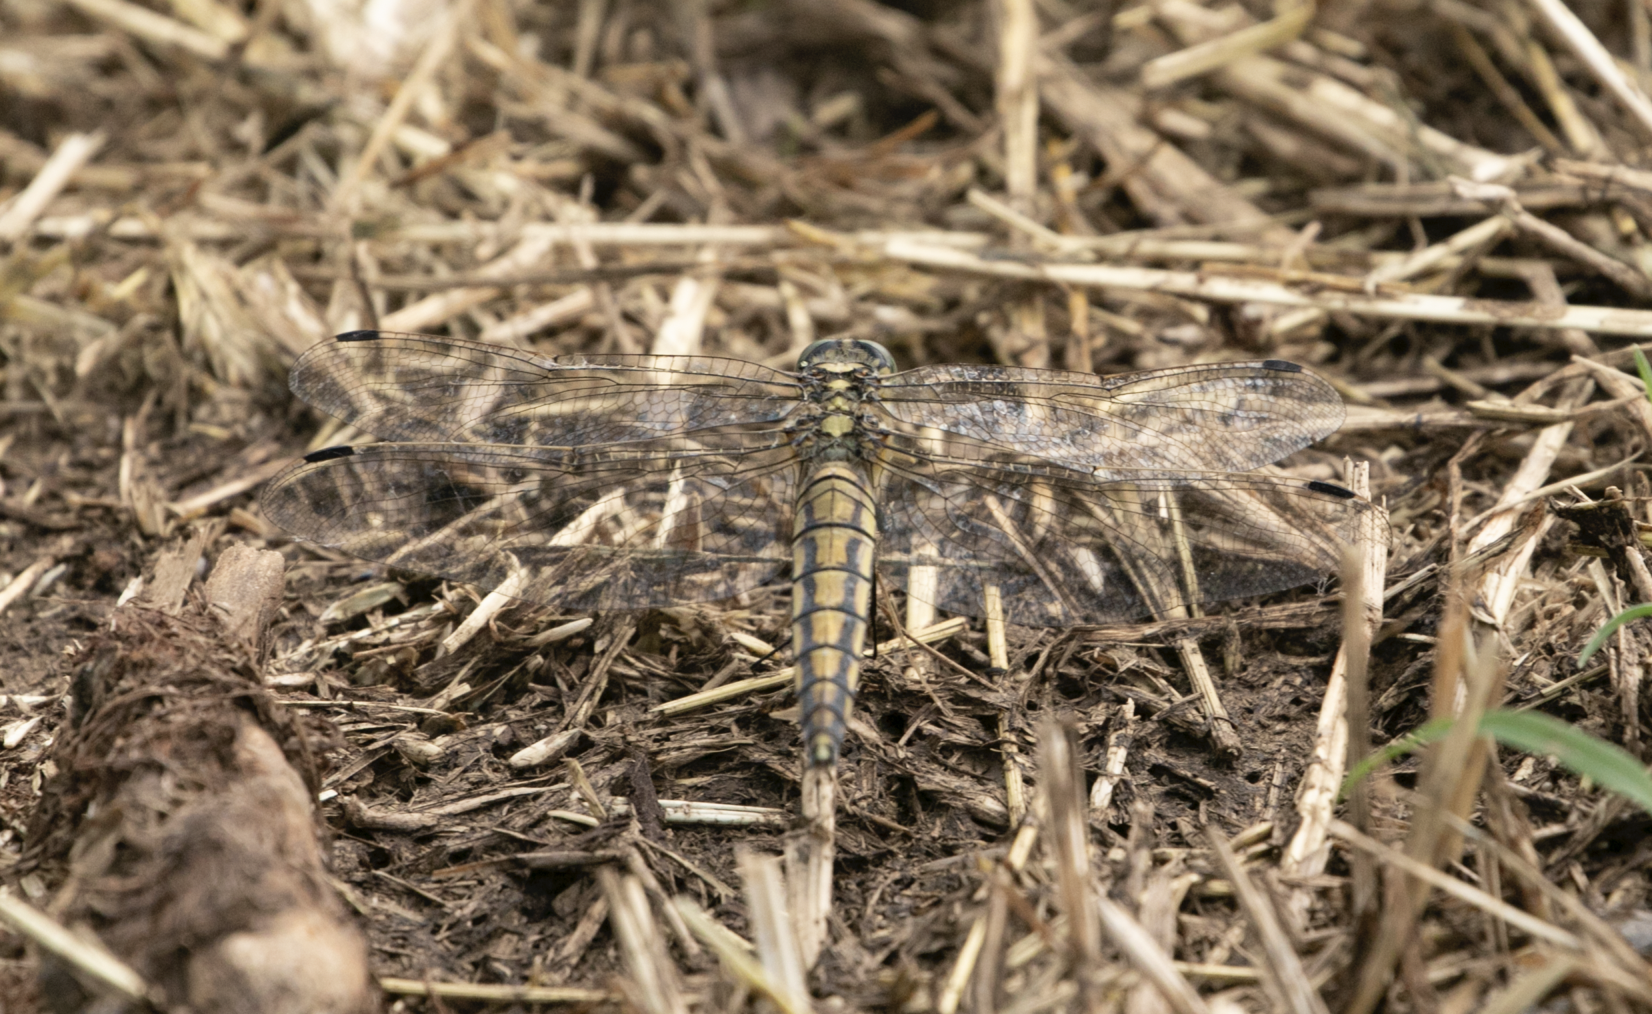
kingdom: Animalia
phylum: Arthropoda
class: Insecta
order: Odonata
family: Libellulidae
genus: Orthetrum
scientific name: Orthetrum cancellatum
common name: Black-tailed skimmer
